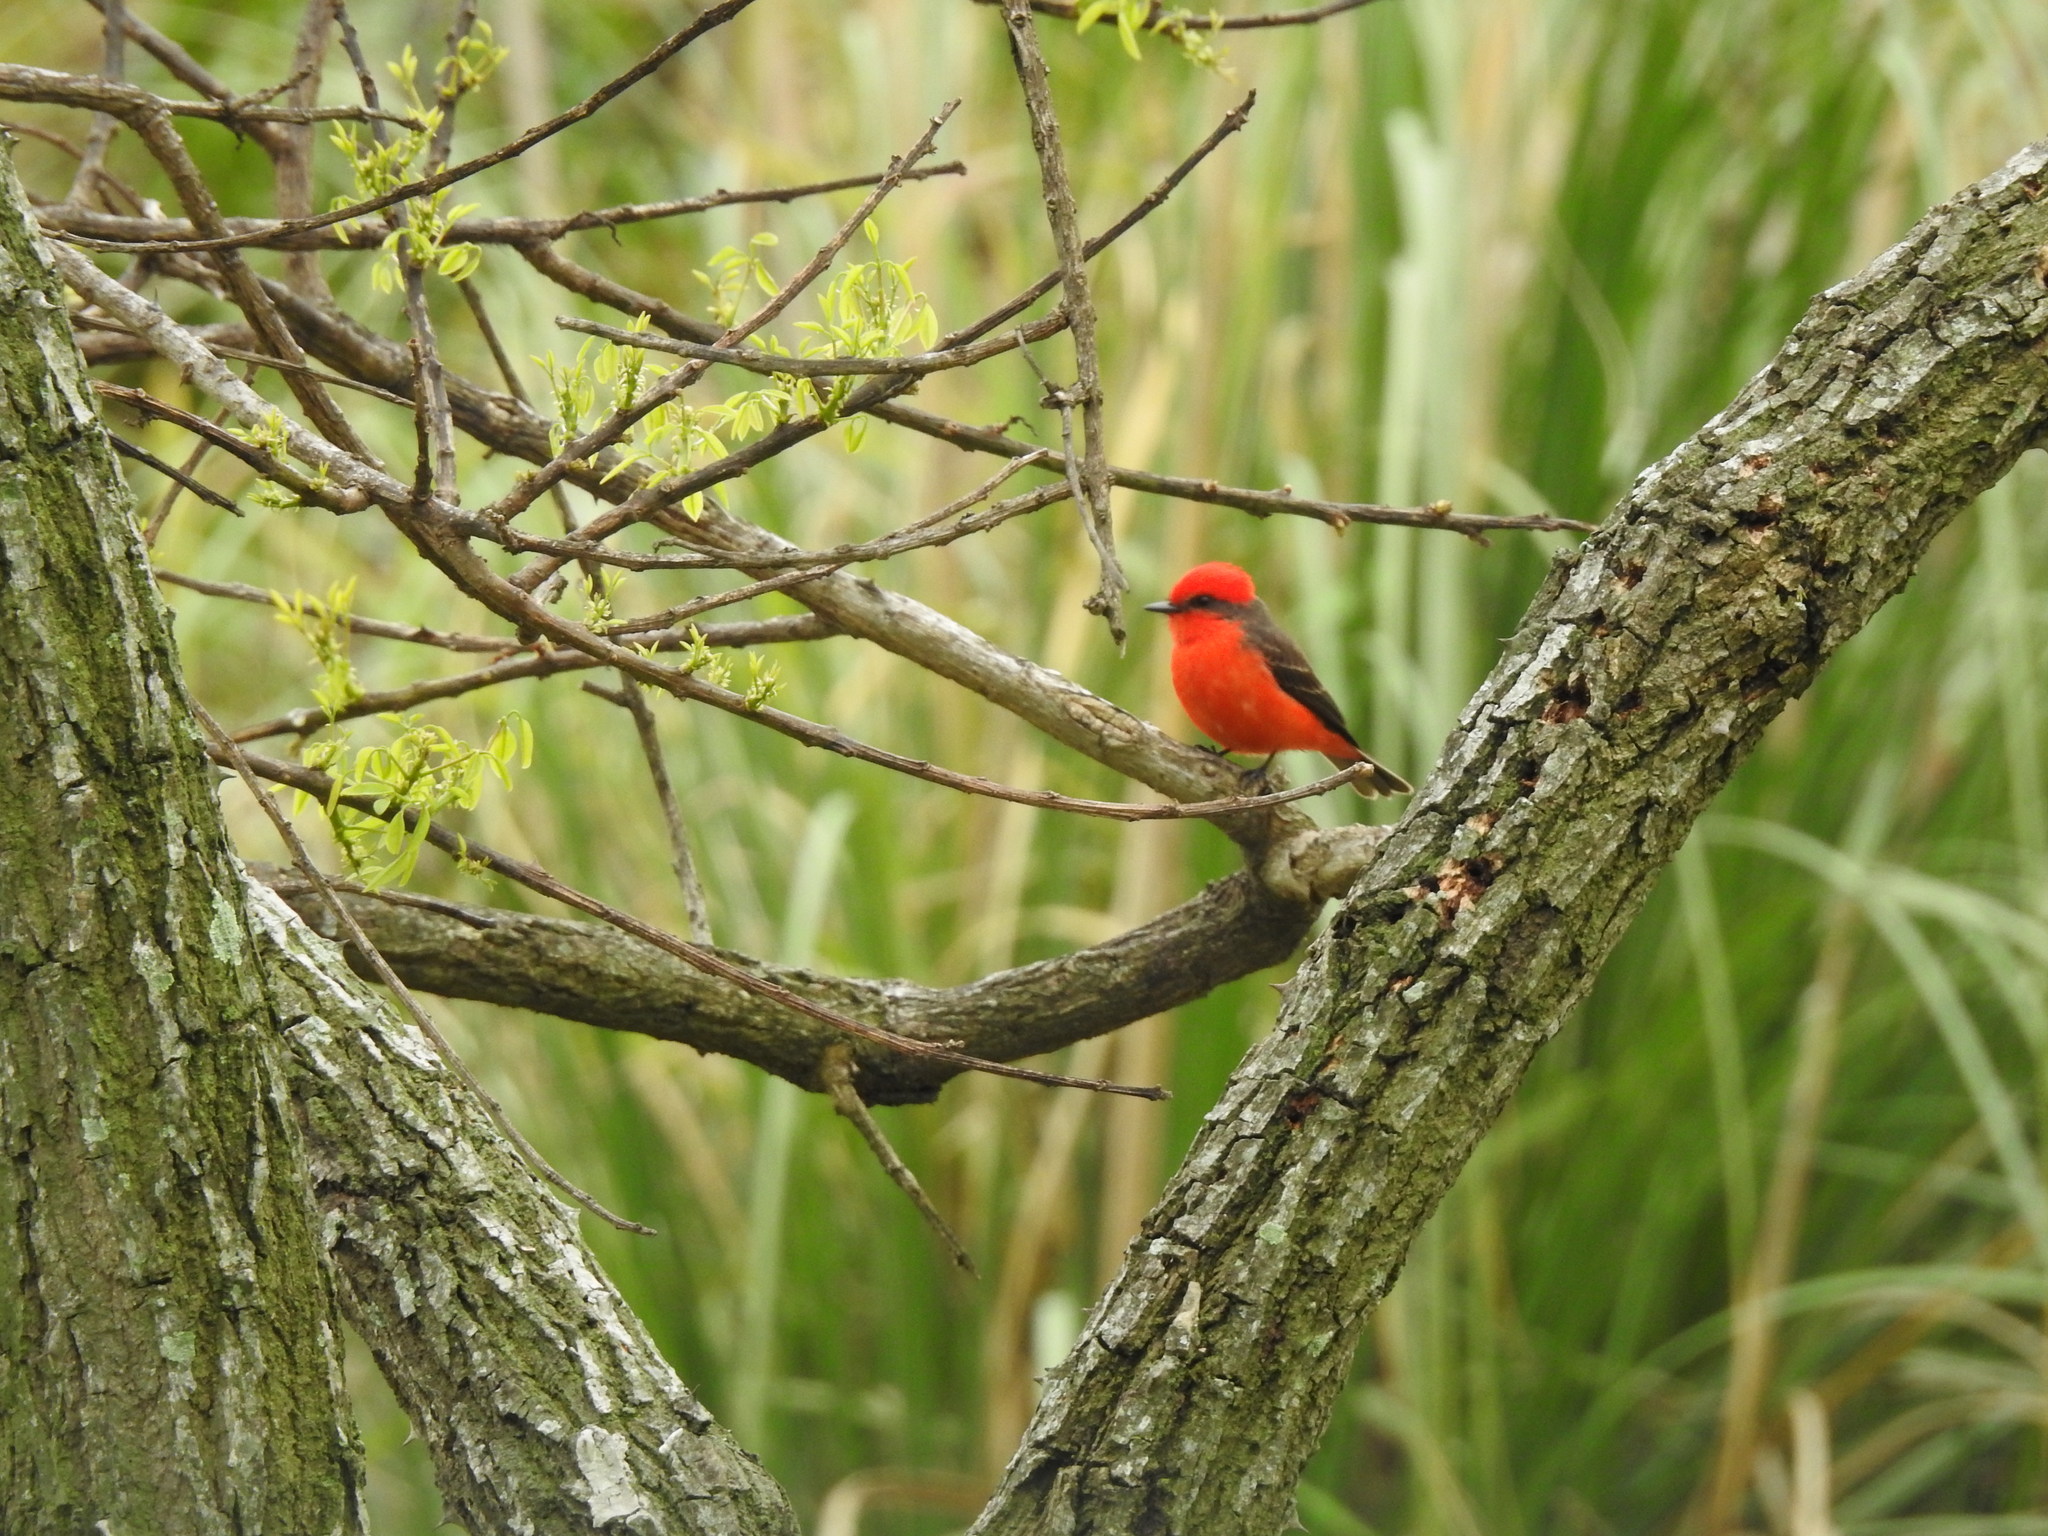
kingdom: Animalia
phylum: Chordata
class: Aves
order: Passeriformes
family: Tyrannidae
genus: Pyrocephalus
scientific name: Pyrocephalus rubinus
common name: Vermilion flycatcher
